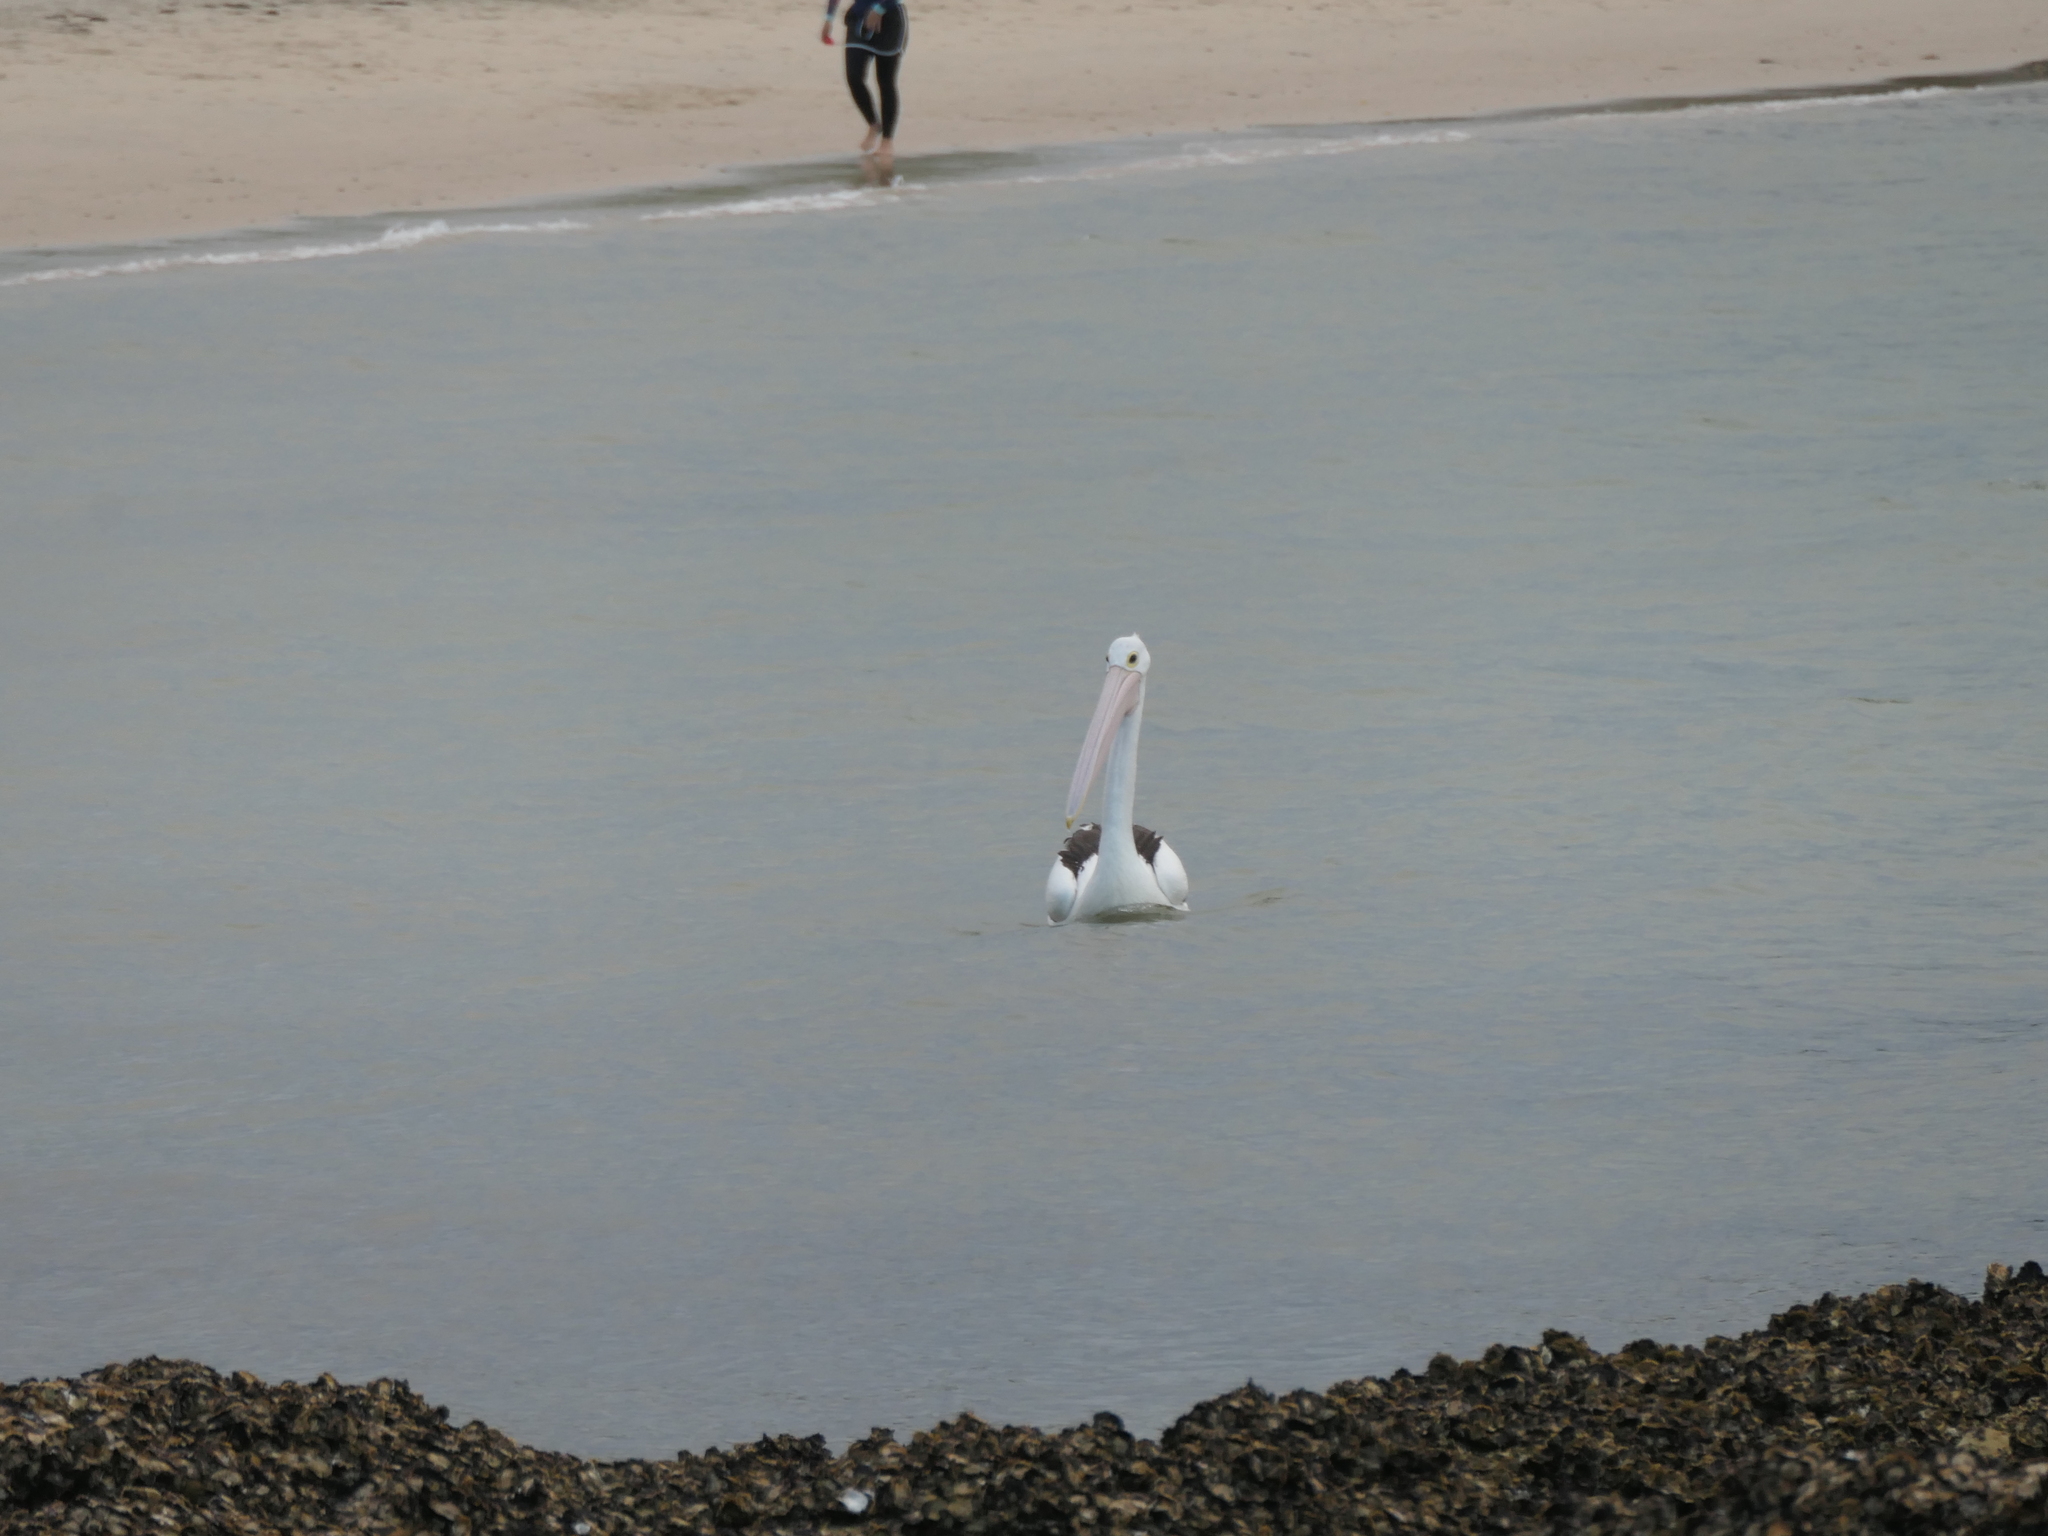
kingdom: Animalia
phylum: Chordata
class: Aves
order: Pelecaniformes
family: Pelecanidae
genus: Pelecanus
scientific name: Pelecanus conspicillatus
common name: Australian pelican
